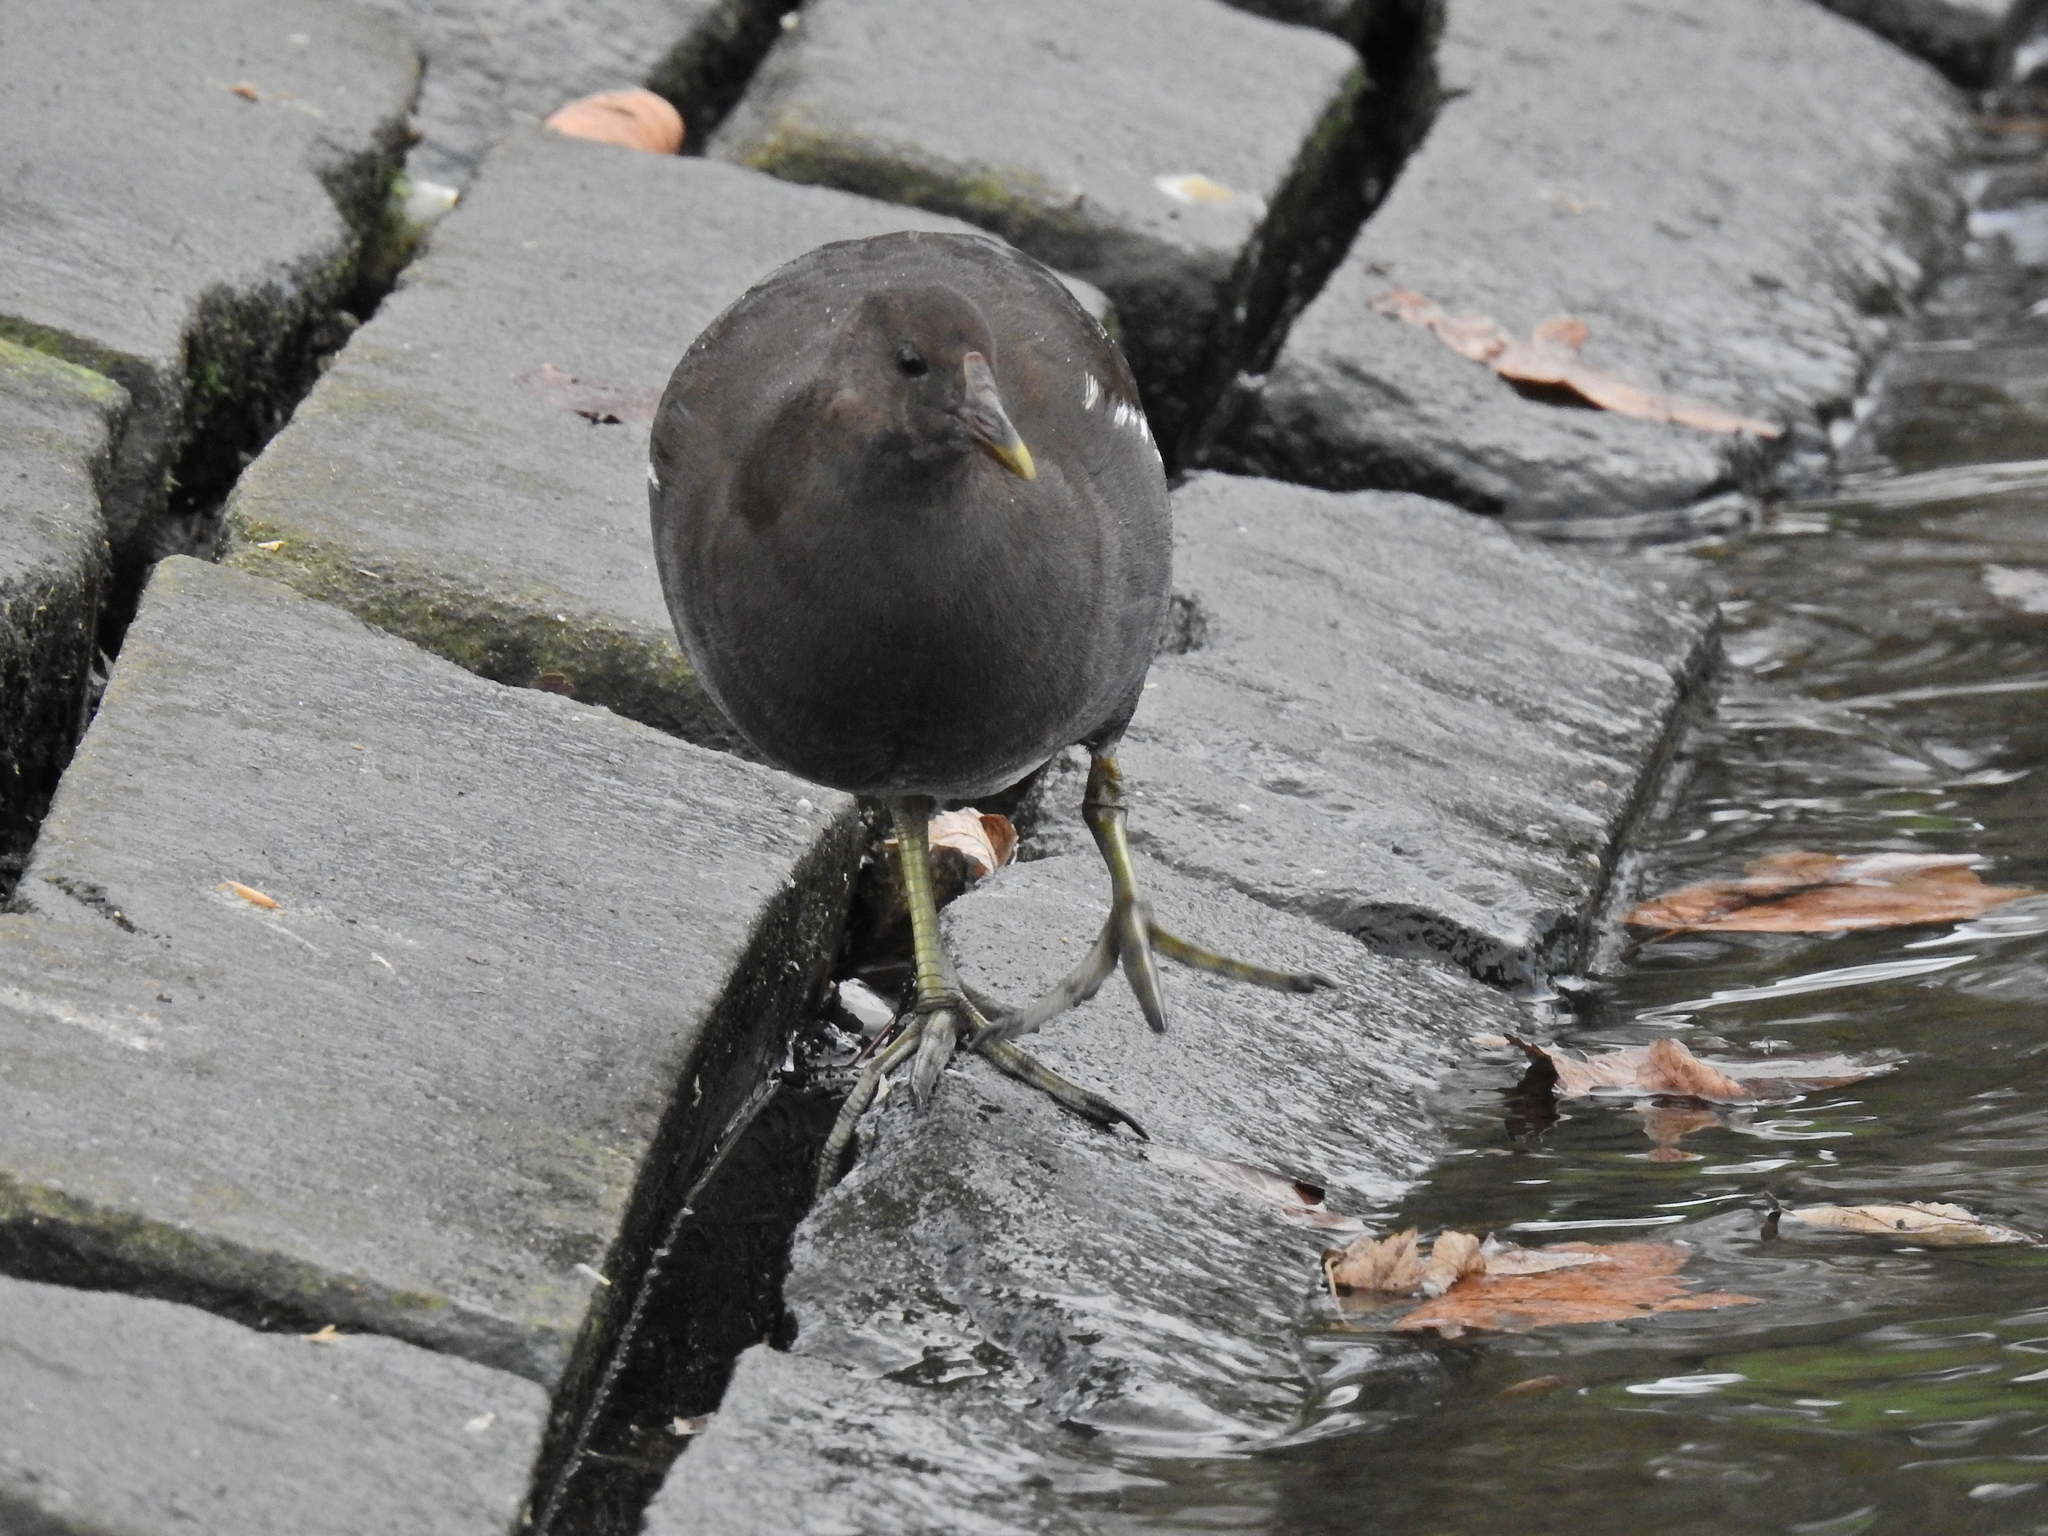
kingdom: Animalia
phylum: Chordata
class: Aves
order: Gruiformes
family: Rallidae
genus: Gallinula
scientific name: Gallinula chloropus
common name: Common moorhen
